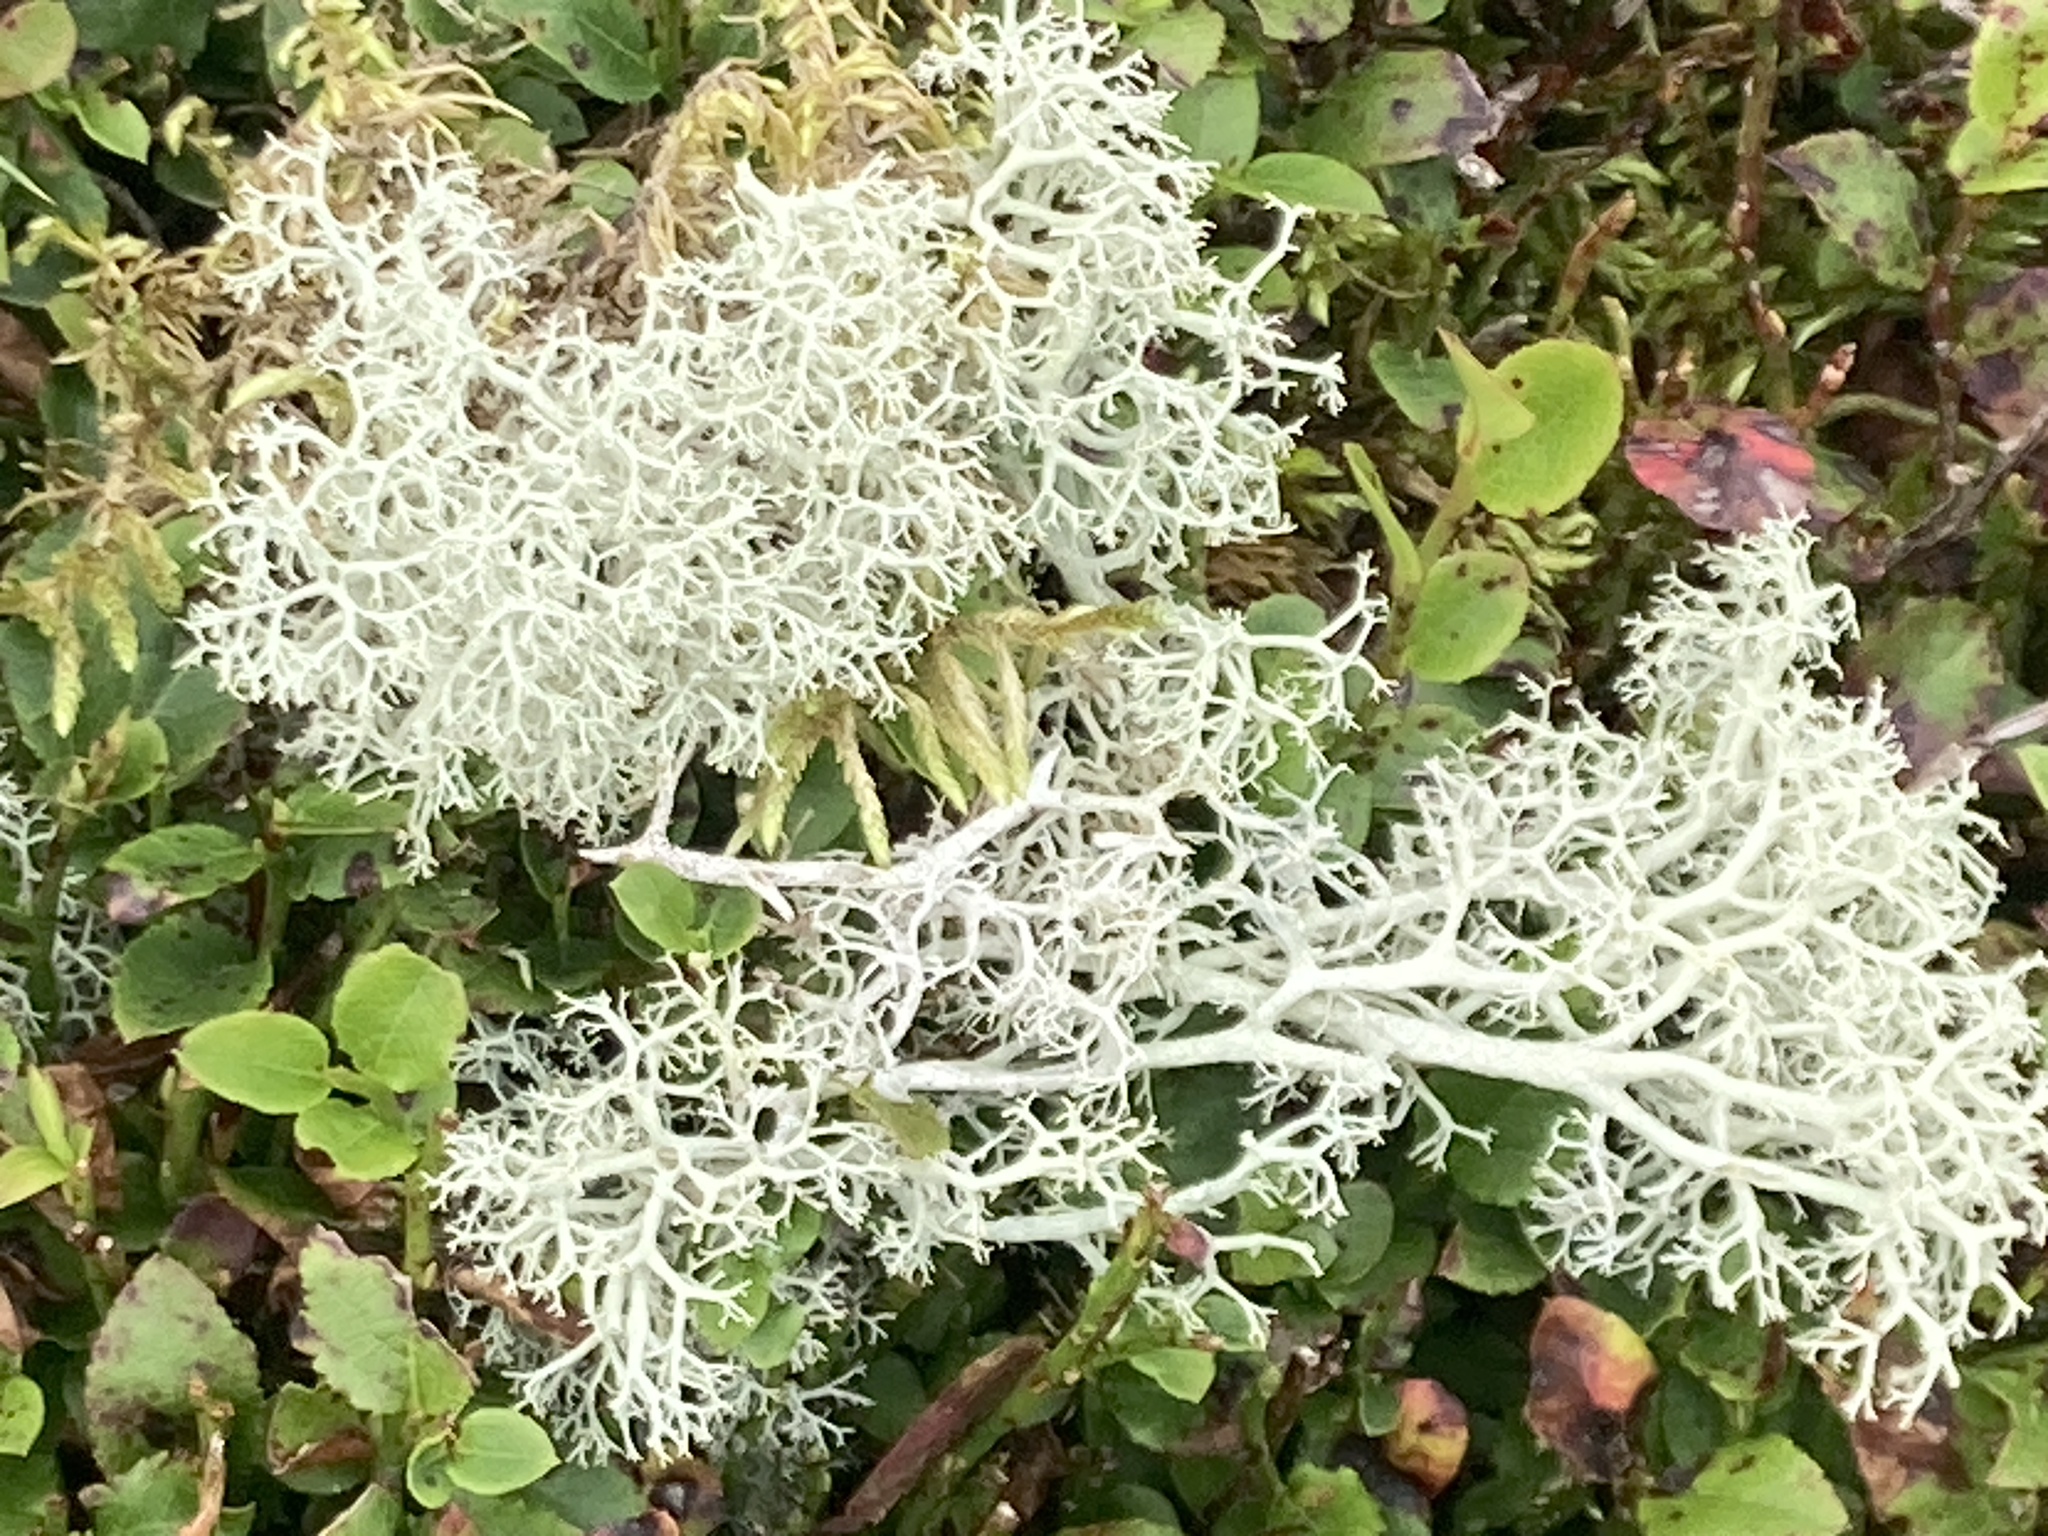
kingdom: Fungi
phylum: Ascomycota
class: Lecanoromycetes
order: Lecanorales
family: Cladoniaceae
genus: Cladonia
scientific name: Cladonia portentosa
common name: Reindeer lichen
